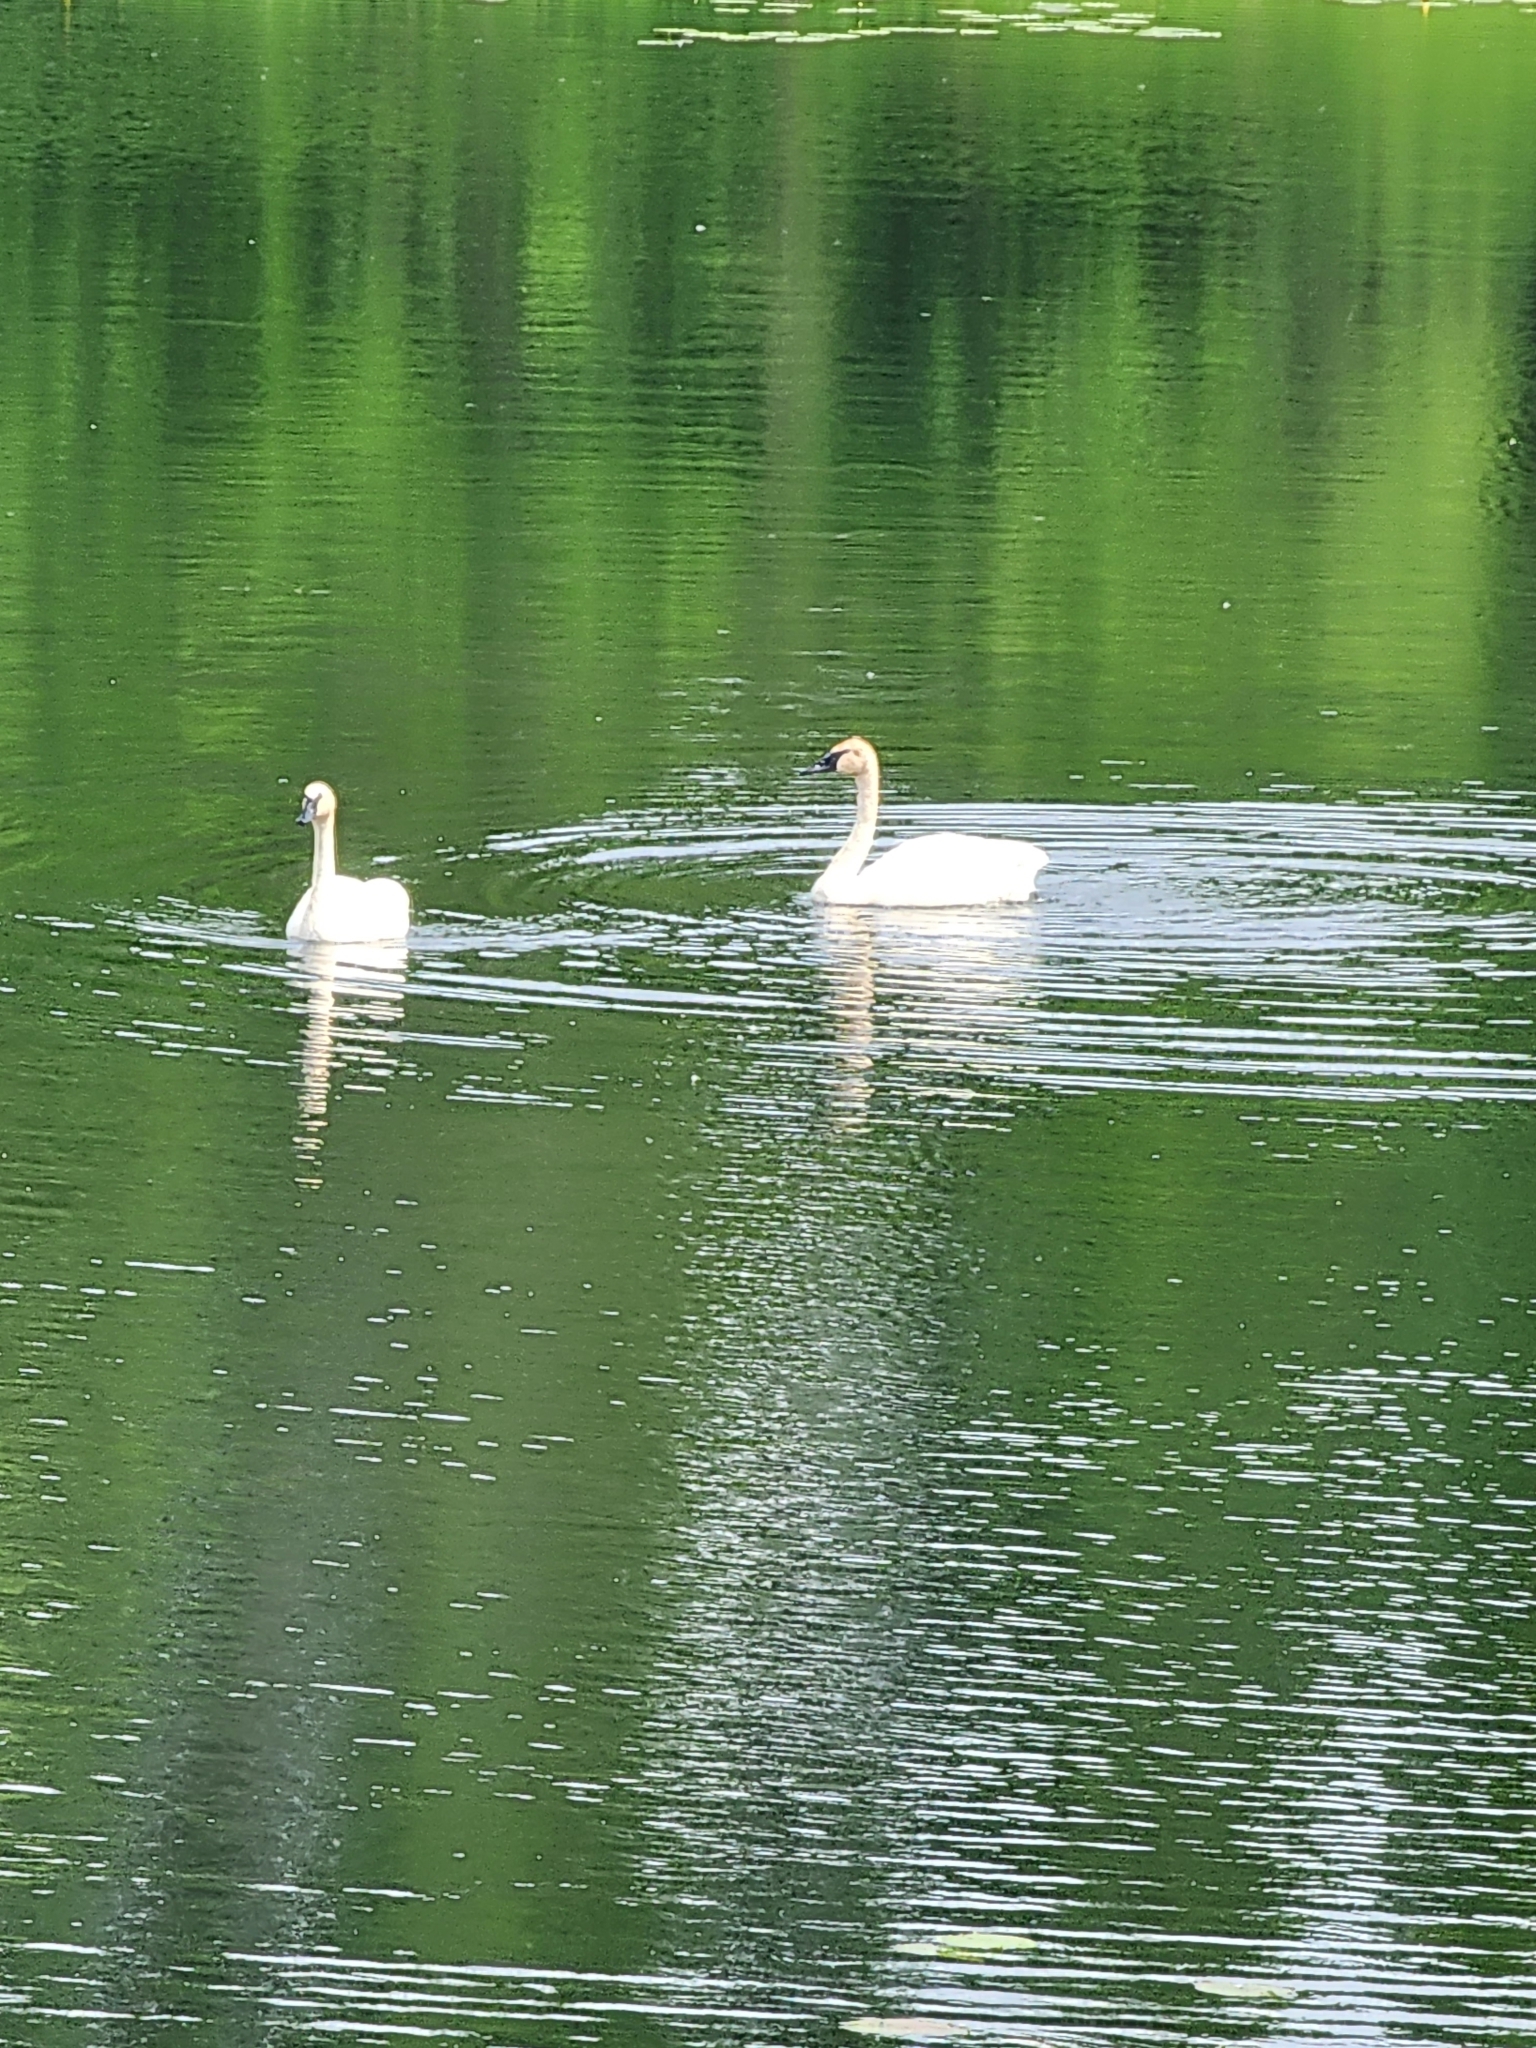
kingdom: Animalia
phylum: Chordata
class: Aves
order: Anseriformes
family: Anatidae
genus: Cygnus
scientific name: Cygnus buccinator
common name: Trumpeter swan
